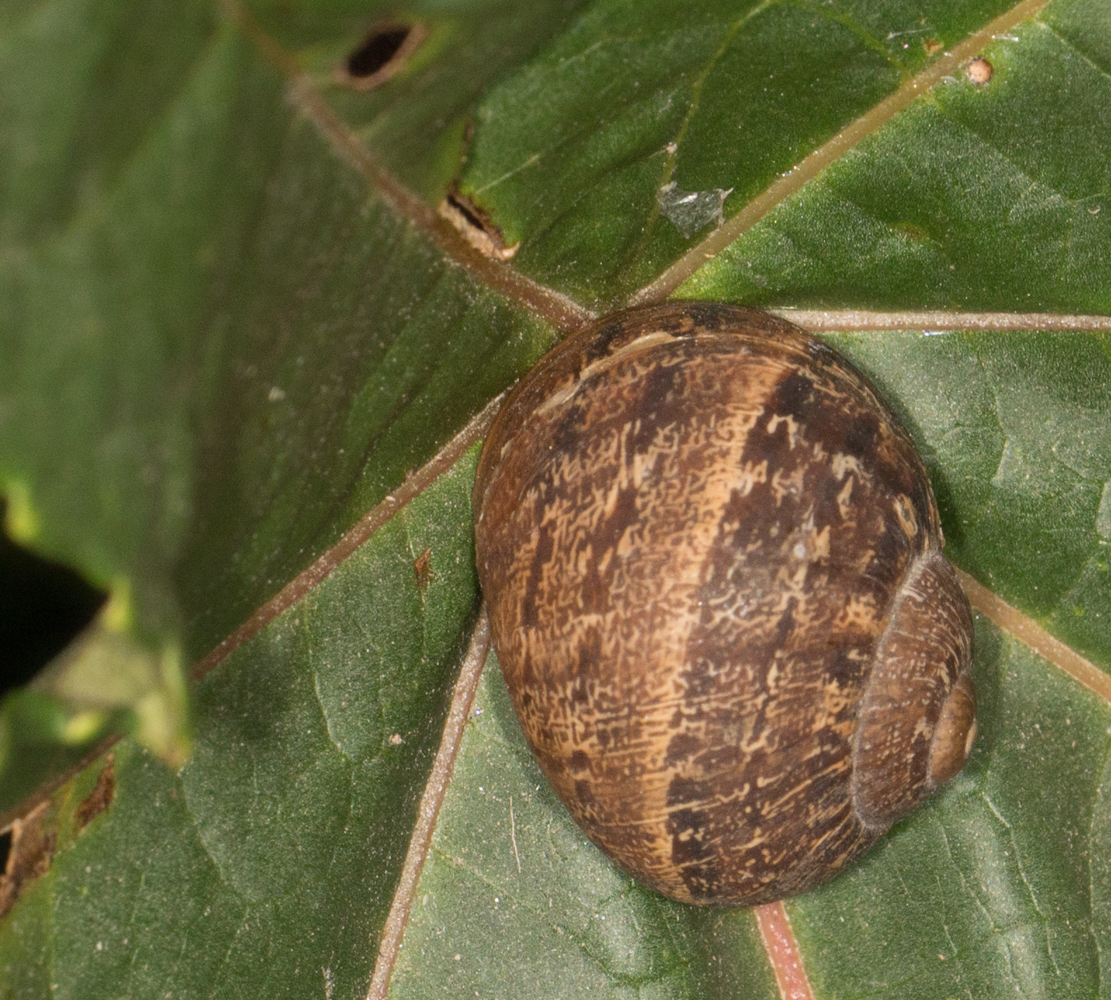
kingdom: Animalia
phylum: Mollusca
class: Gastropoda
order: Stylommatophora
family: Helicidae
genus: Cornu
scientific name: Cornu aspersum
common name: Brown garden snail
